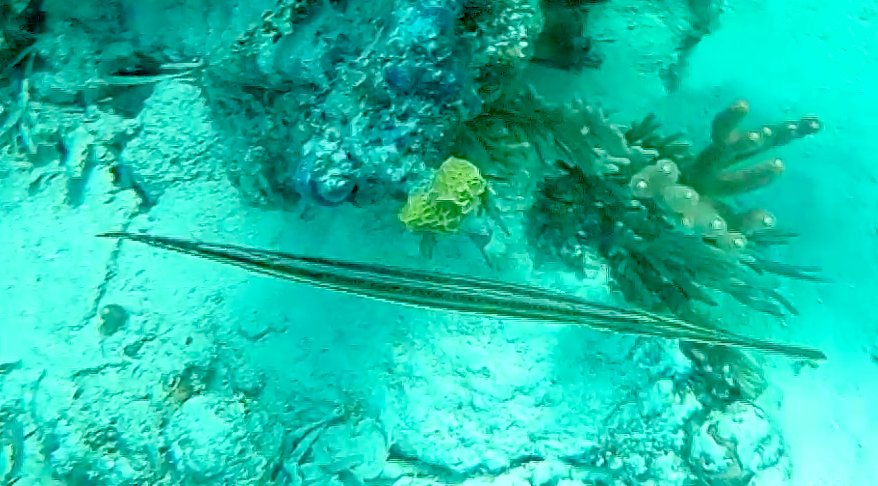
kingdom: Animalia
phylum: Chordata
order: Syngnathiformes
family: Aulostomidae
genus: Aulostomus
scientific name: Aulostomus maculatus
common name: West atlantic trumpetfish
